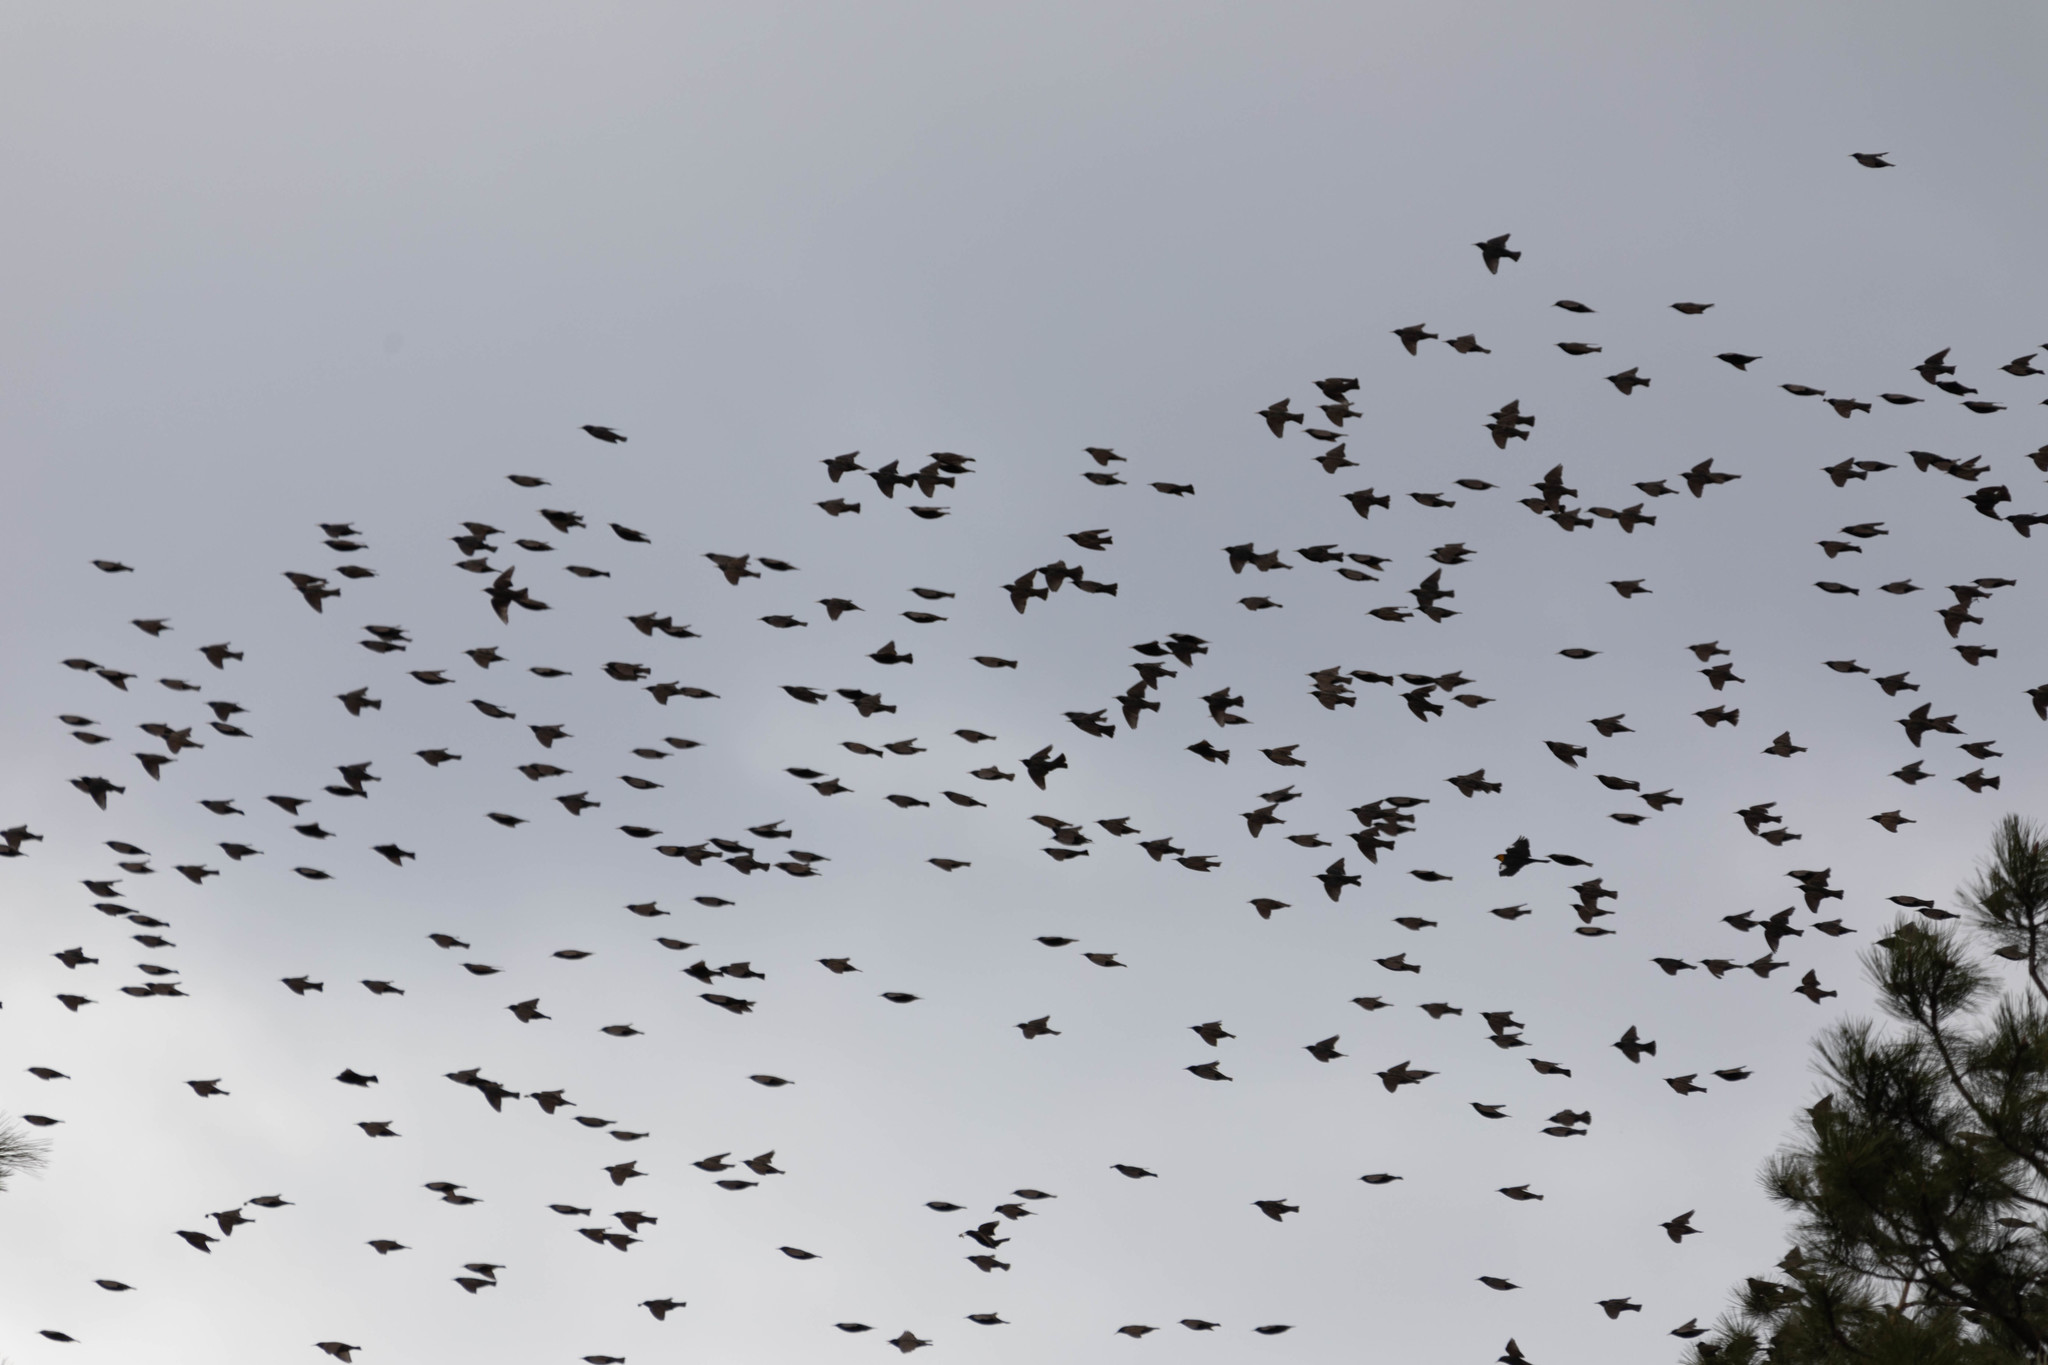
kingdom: Animalia
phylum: Chordata
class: Aves
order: Passeriformes
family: Sturnidae
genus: Sturnus
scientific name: Sturnus vulgaris
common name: Common starling
